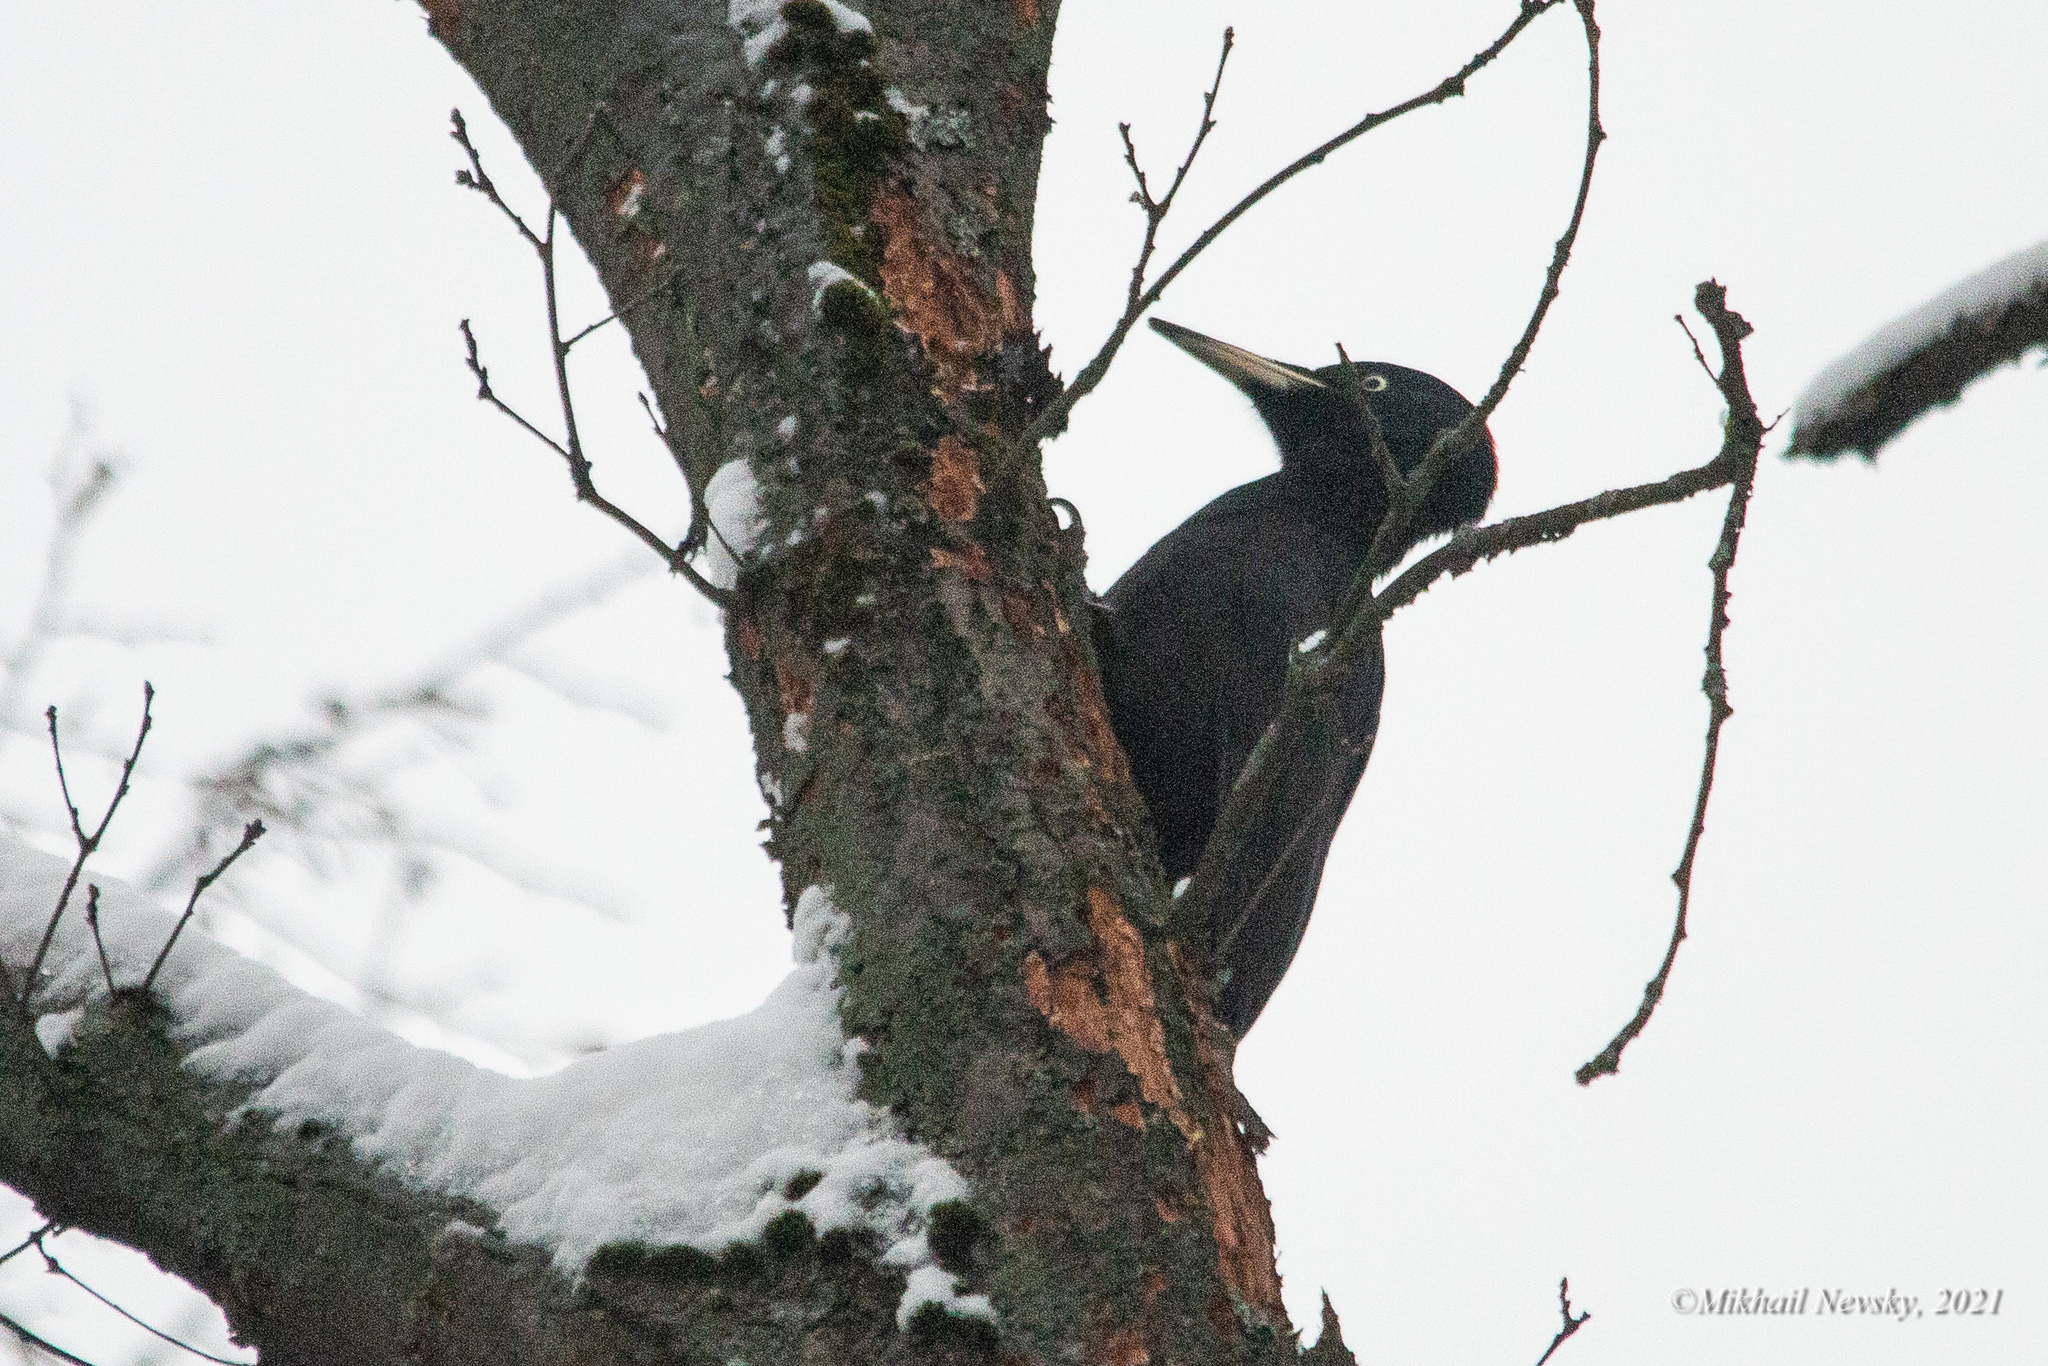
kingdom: Animalia
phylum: Chordata
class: Aves
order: Piciformes
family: Picidae
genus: Dryocopus
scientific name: Dryocopus martius
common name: Black woodpecker
